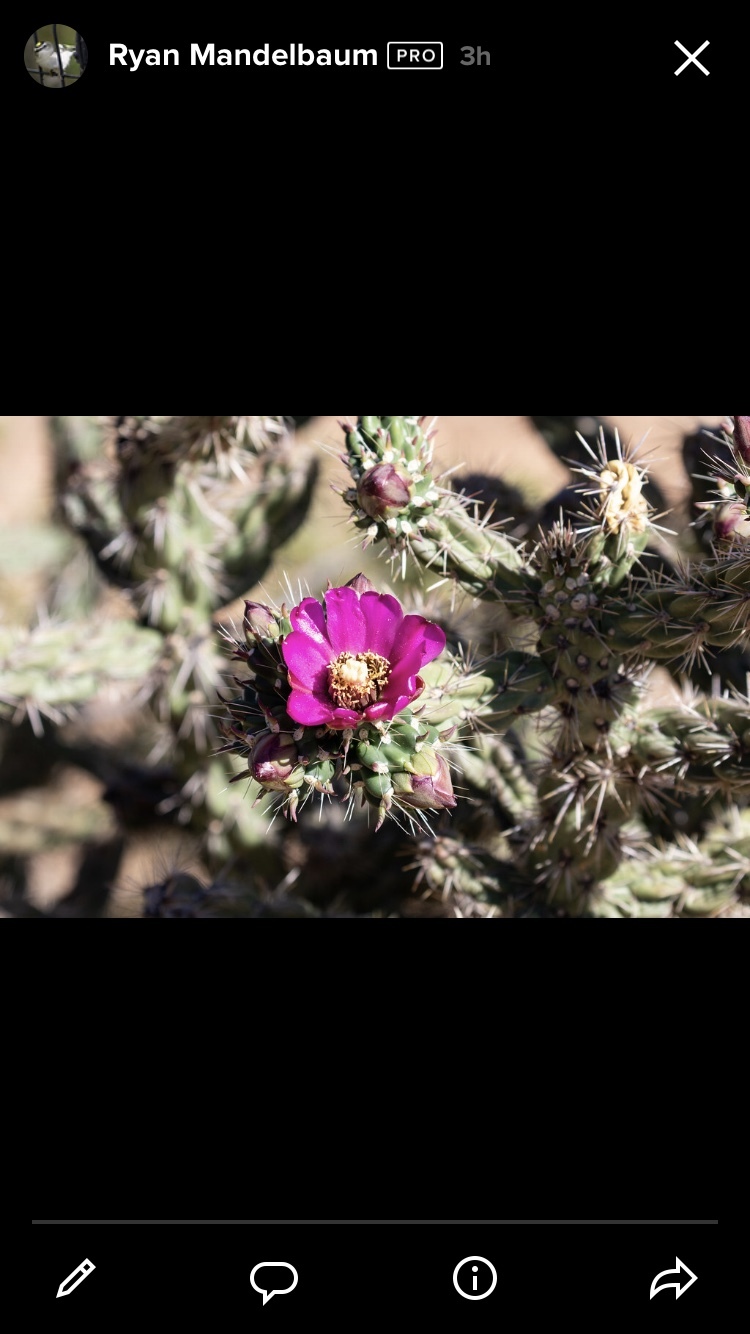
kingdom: Plantae
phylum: Tracheophyta
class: Magnoliopsida
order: Caryophyllales
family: Cactaceae
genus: Cylindropuntia
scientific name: Cylindropuntia imbricata
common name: Candelabrum cactus
